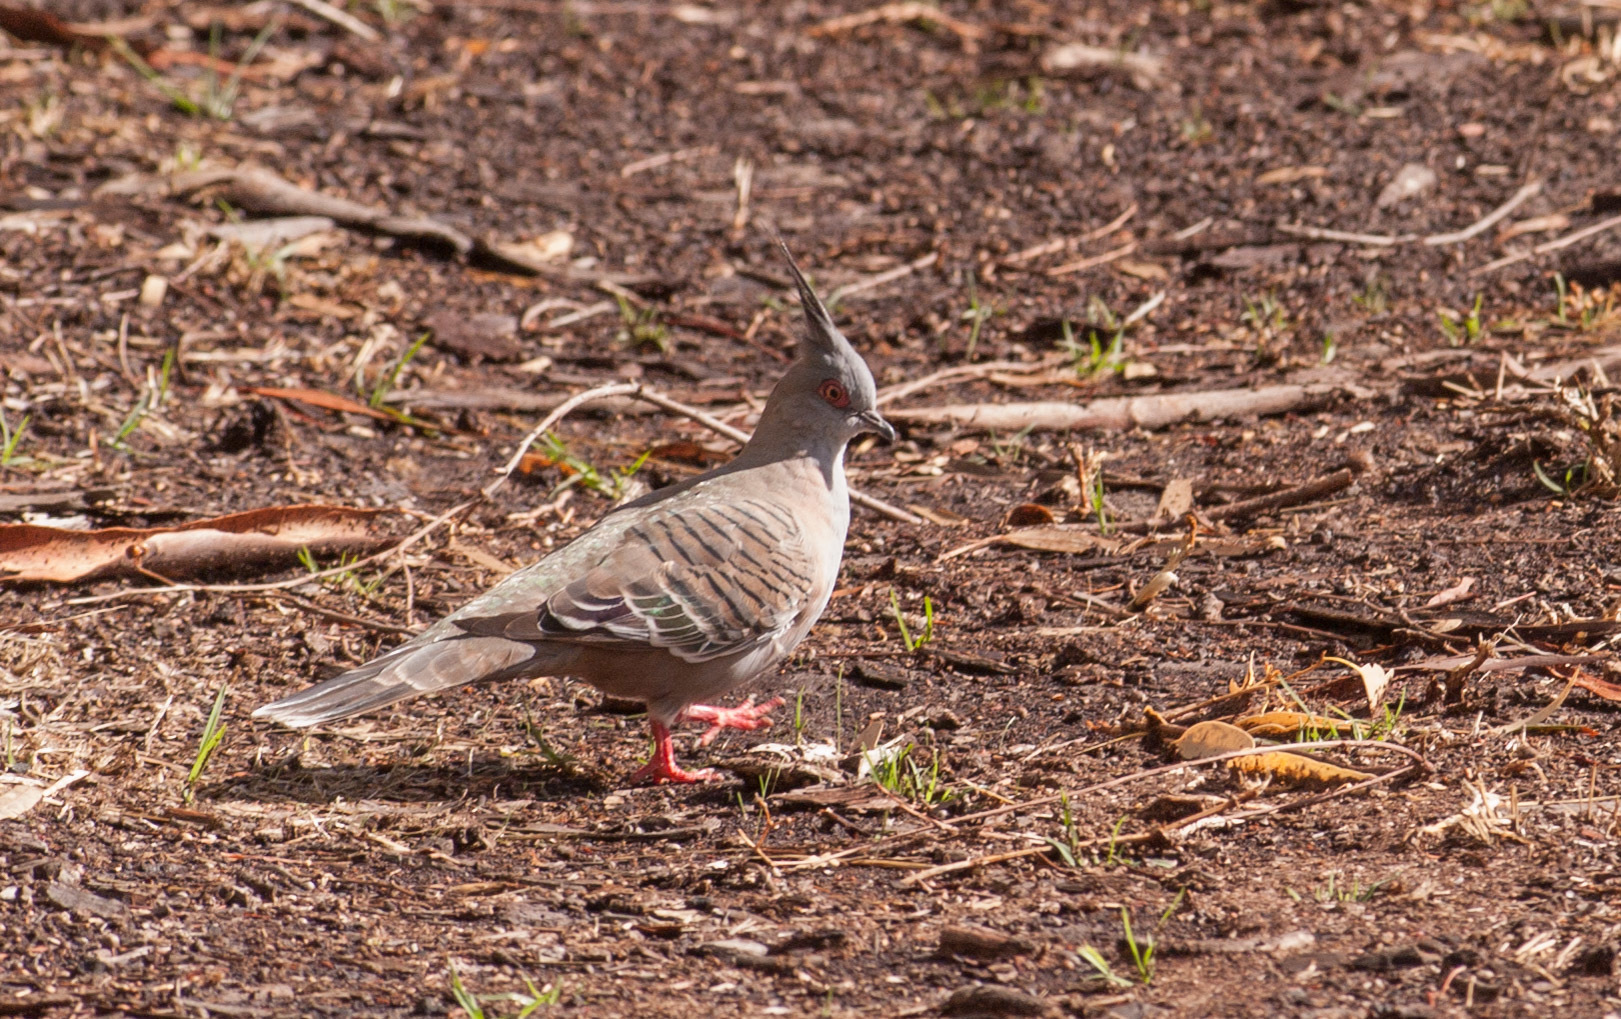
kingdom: Animalia
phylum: Chordata
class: Aves
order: Columbiformes
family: Columbidae
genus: Ocyphaps
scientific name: Ocyphaps lophotes
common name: Crested pigeon
